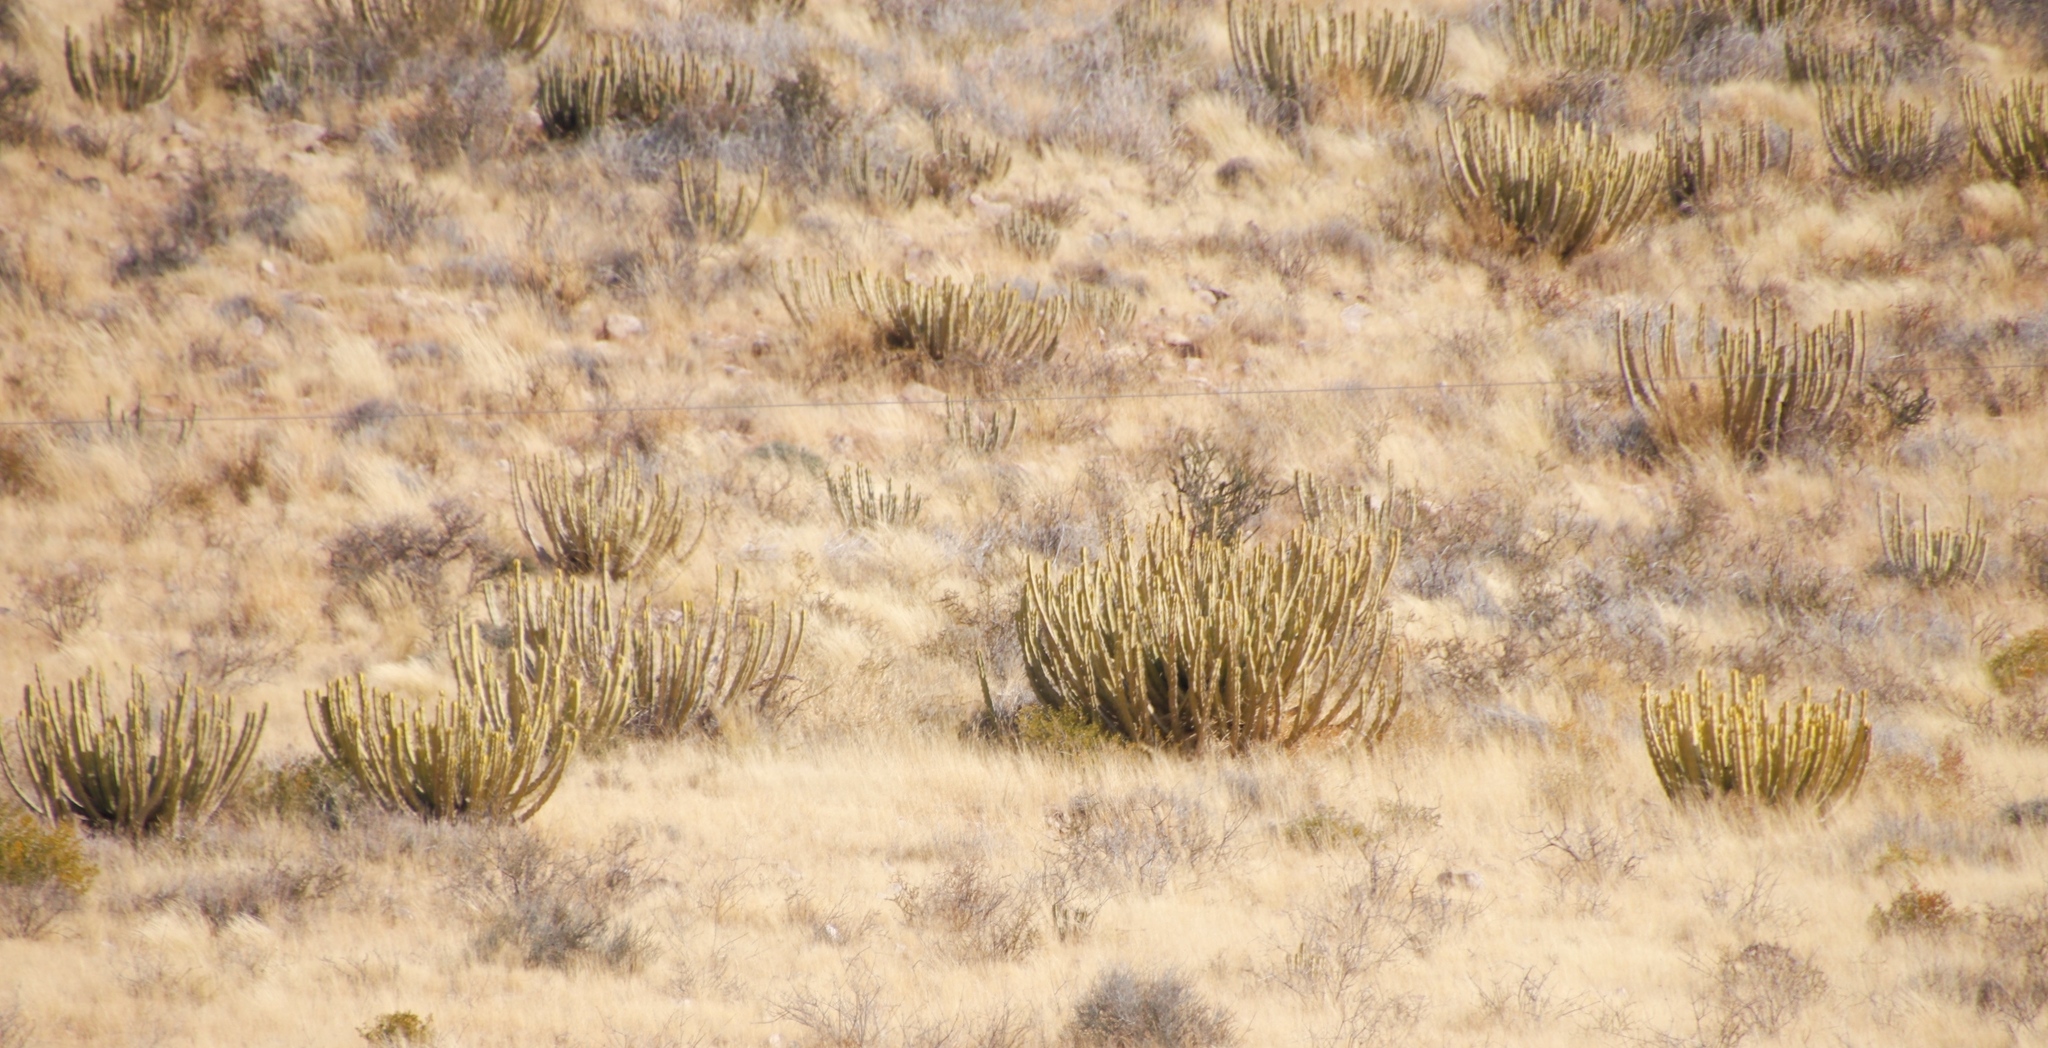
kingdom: Plantae
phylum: Tracheophyta
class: Magnoliopsida
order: Malpighiales
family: Euphorbiaceae
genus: Euphorbia
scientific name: Euphorbia avasmontana
